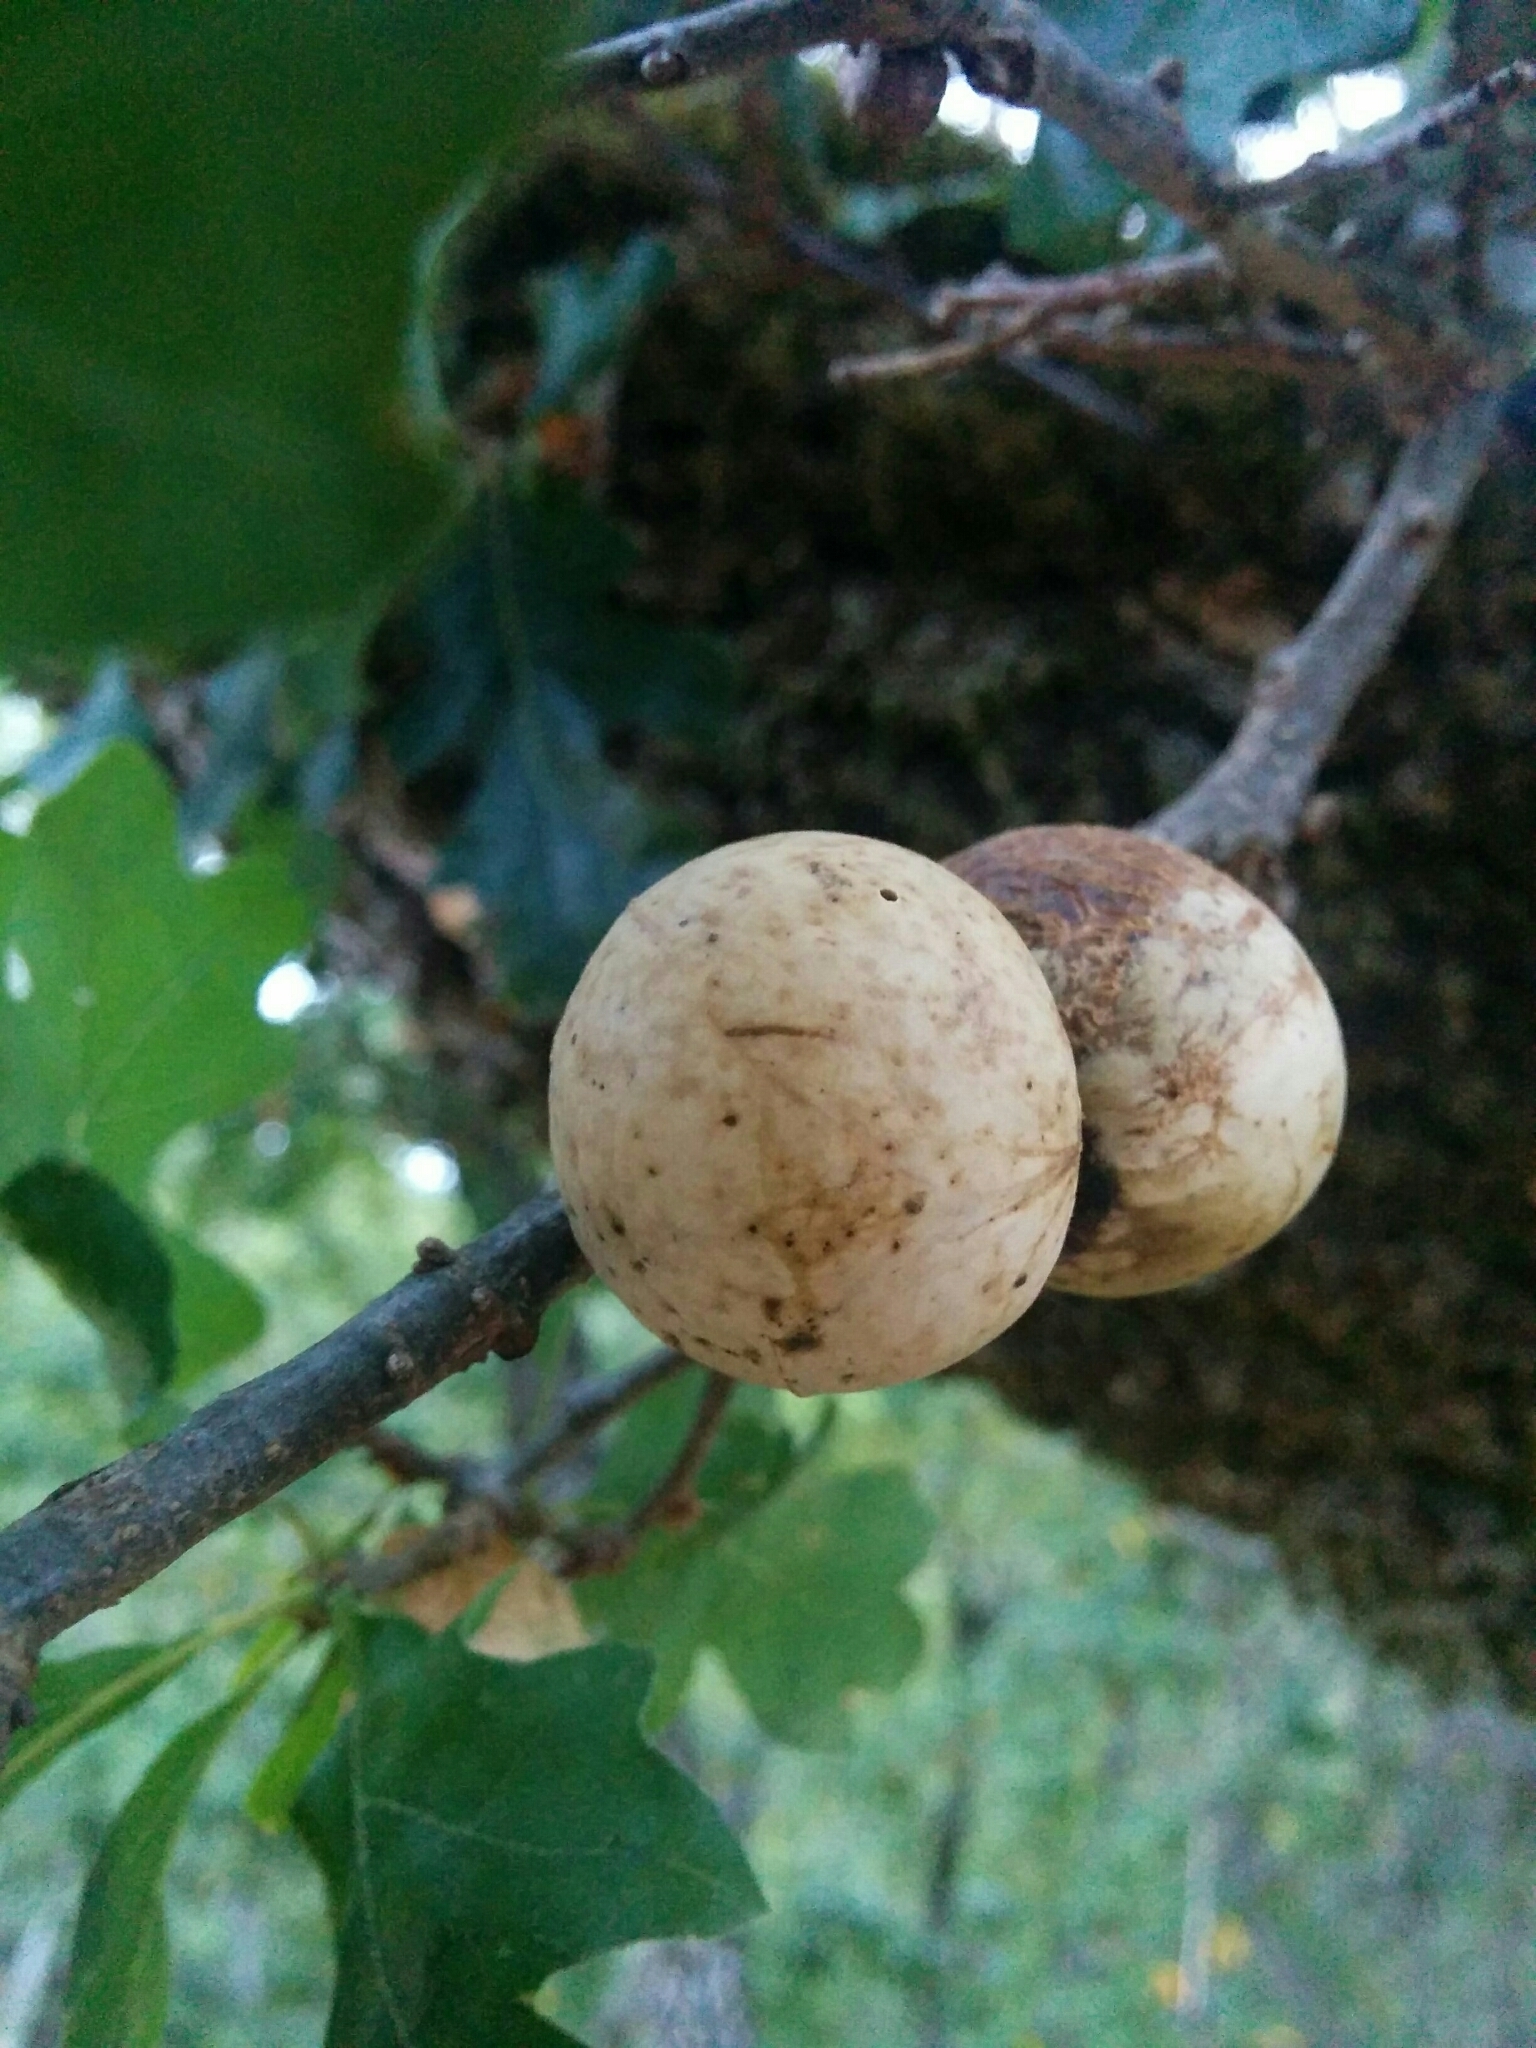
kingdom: Animalia
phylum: Arthropoda
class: Insecta
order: Hymenoptera
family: Cynipidae
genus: Andricus
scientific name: Andricus quercuscalifornicus
